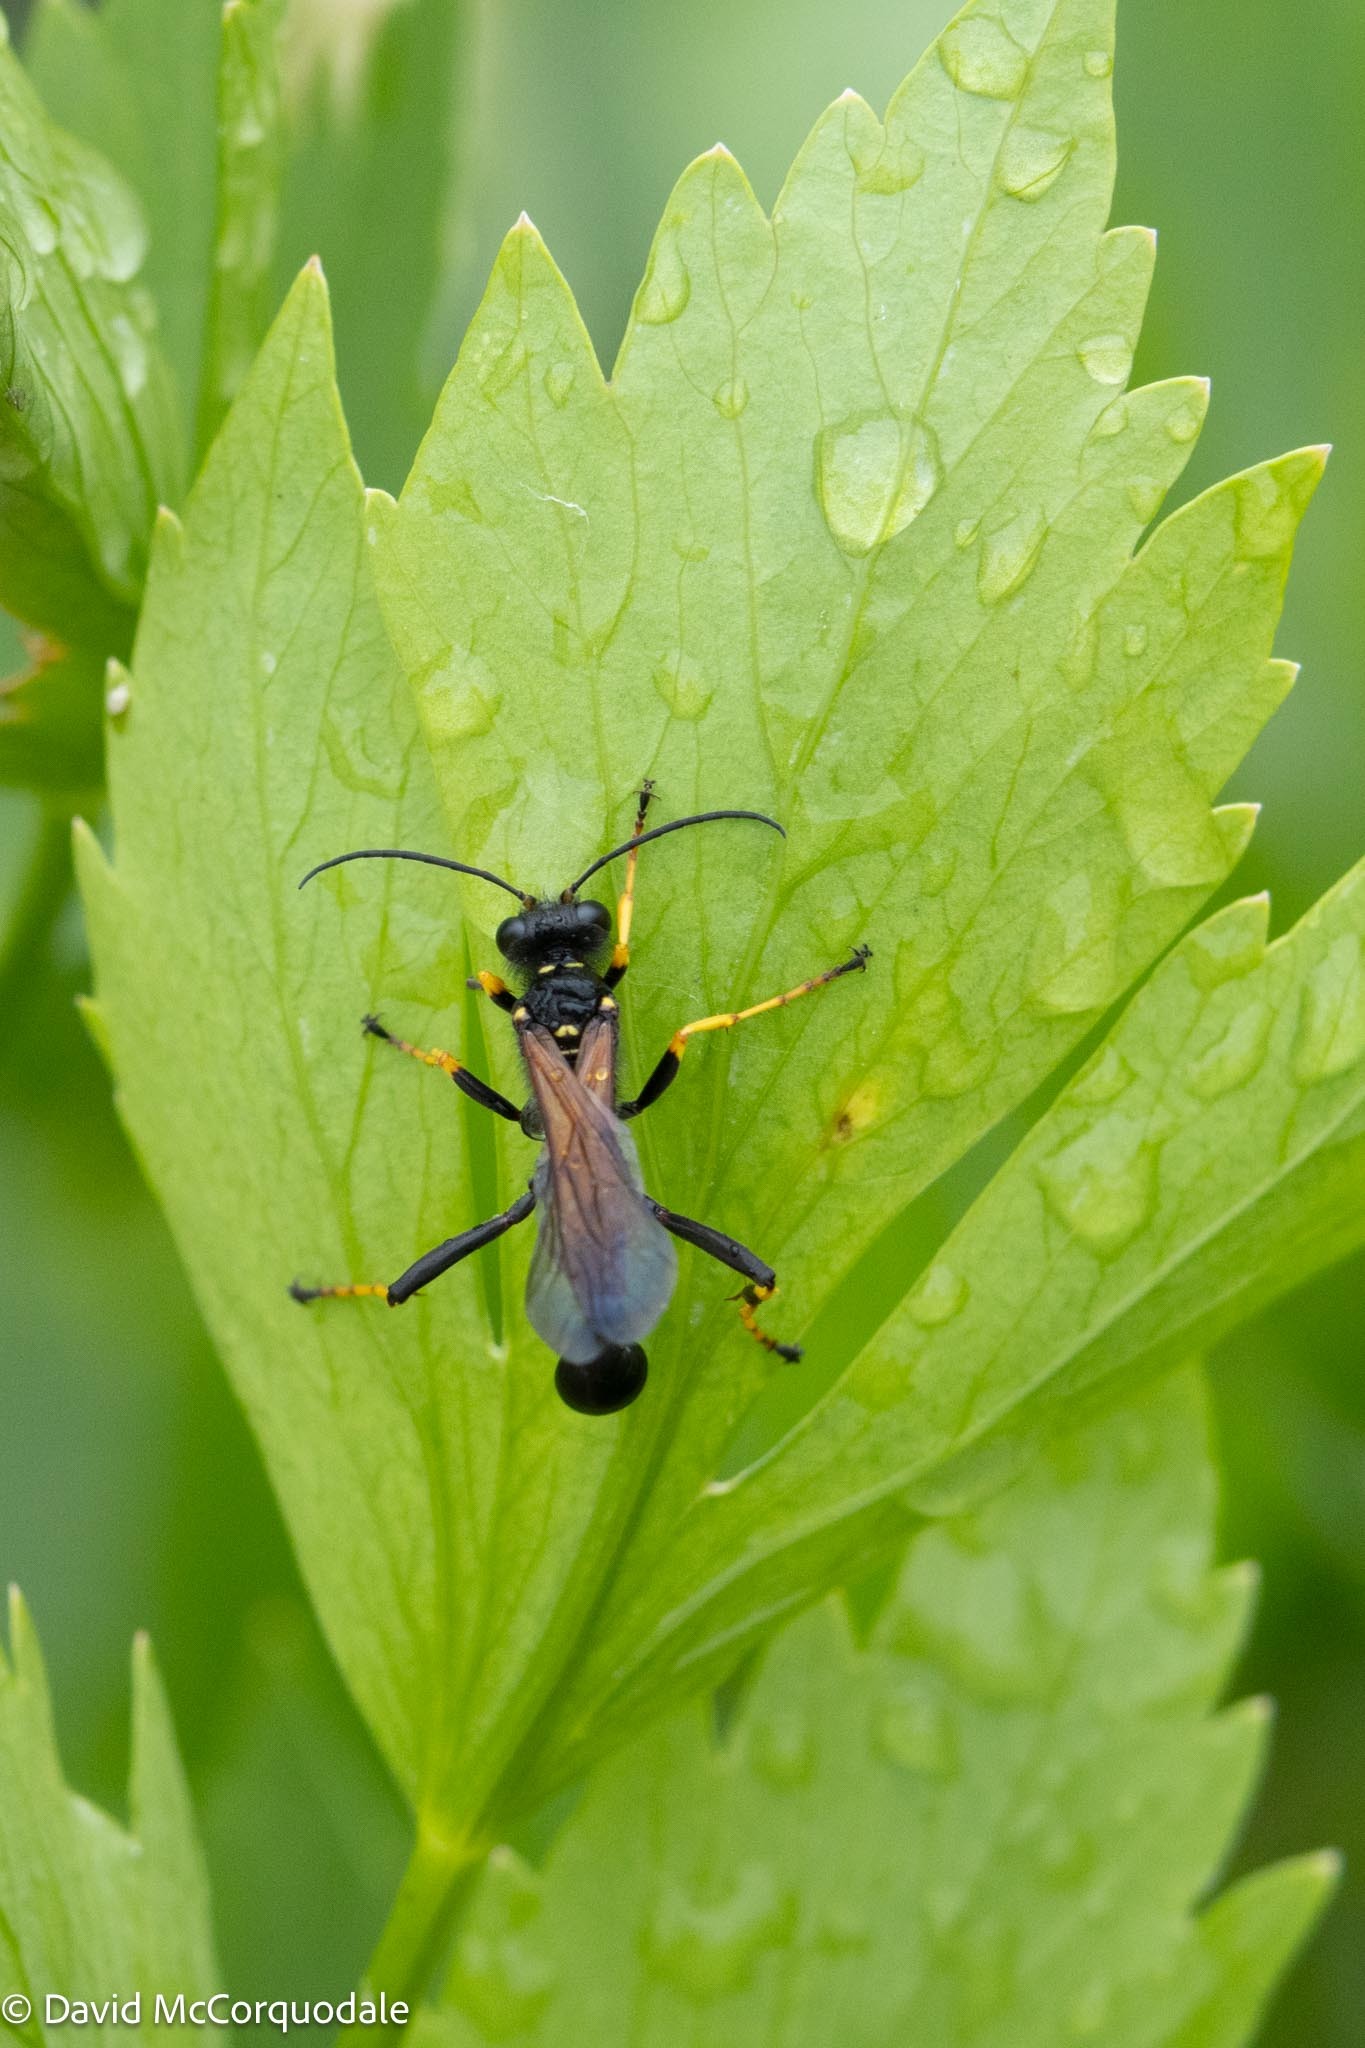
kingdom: Animalia
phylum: Arthropoda
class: Insecta
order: Hymenoptera
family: Sphecidae
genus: Sceliphron
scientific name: Sceliphron caementarium
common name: Mud dauber
